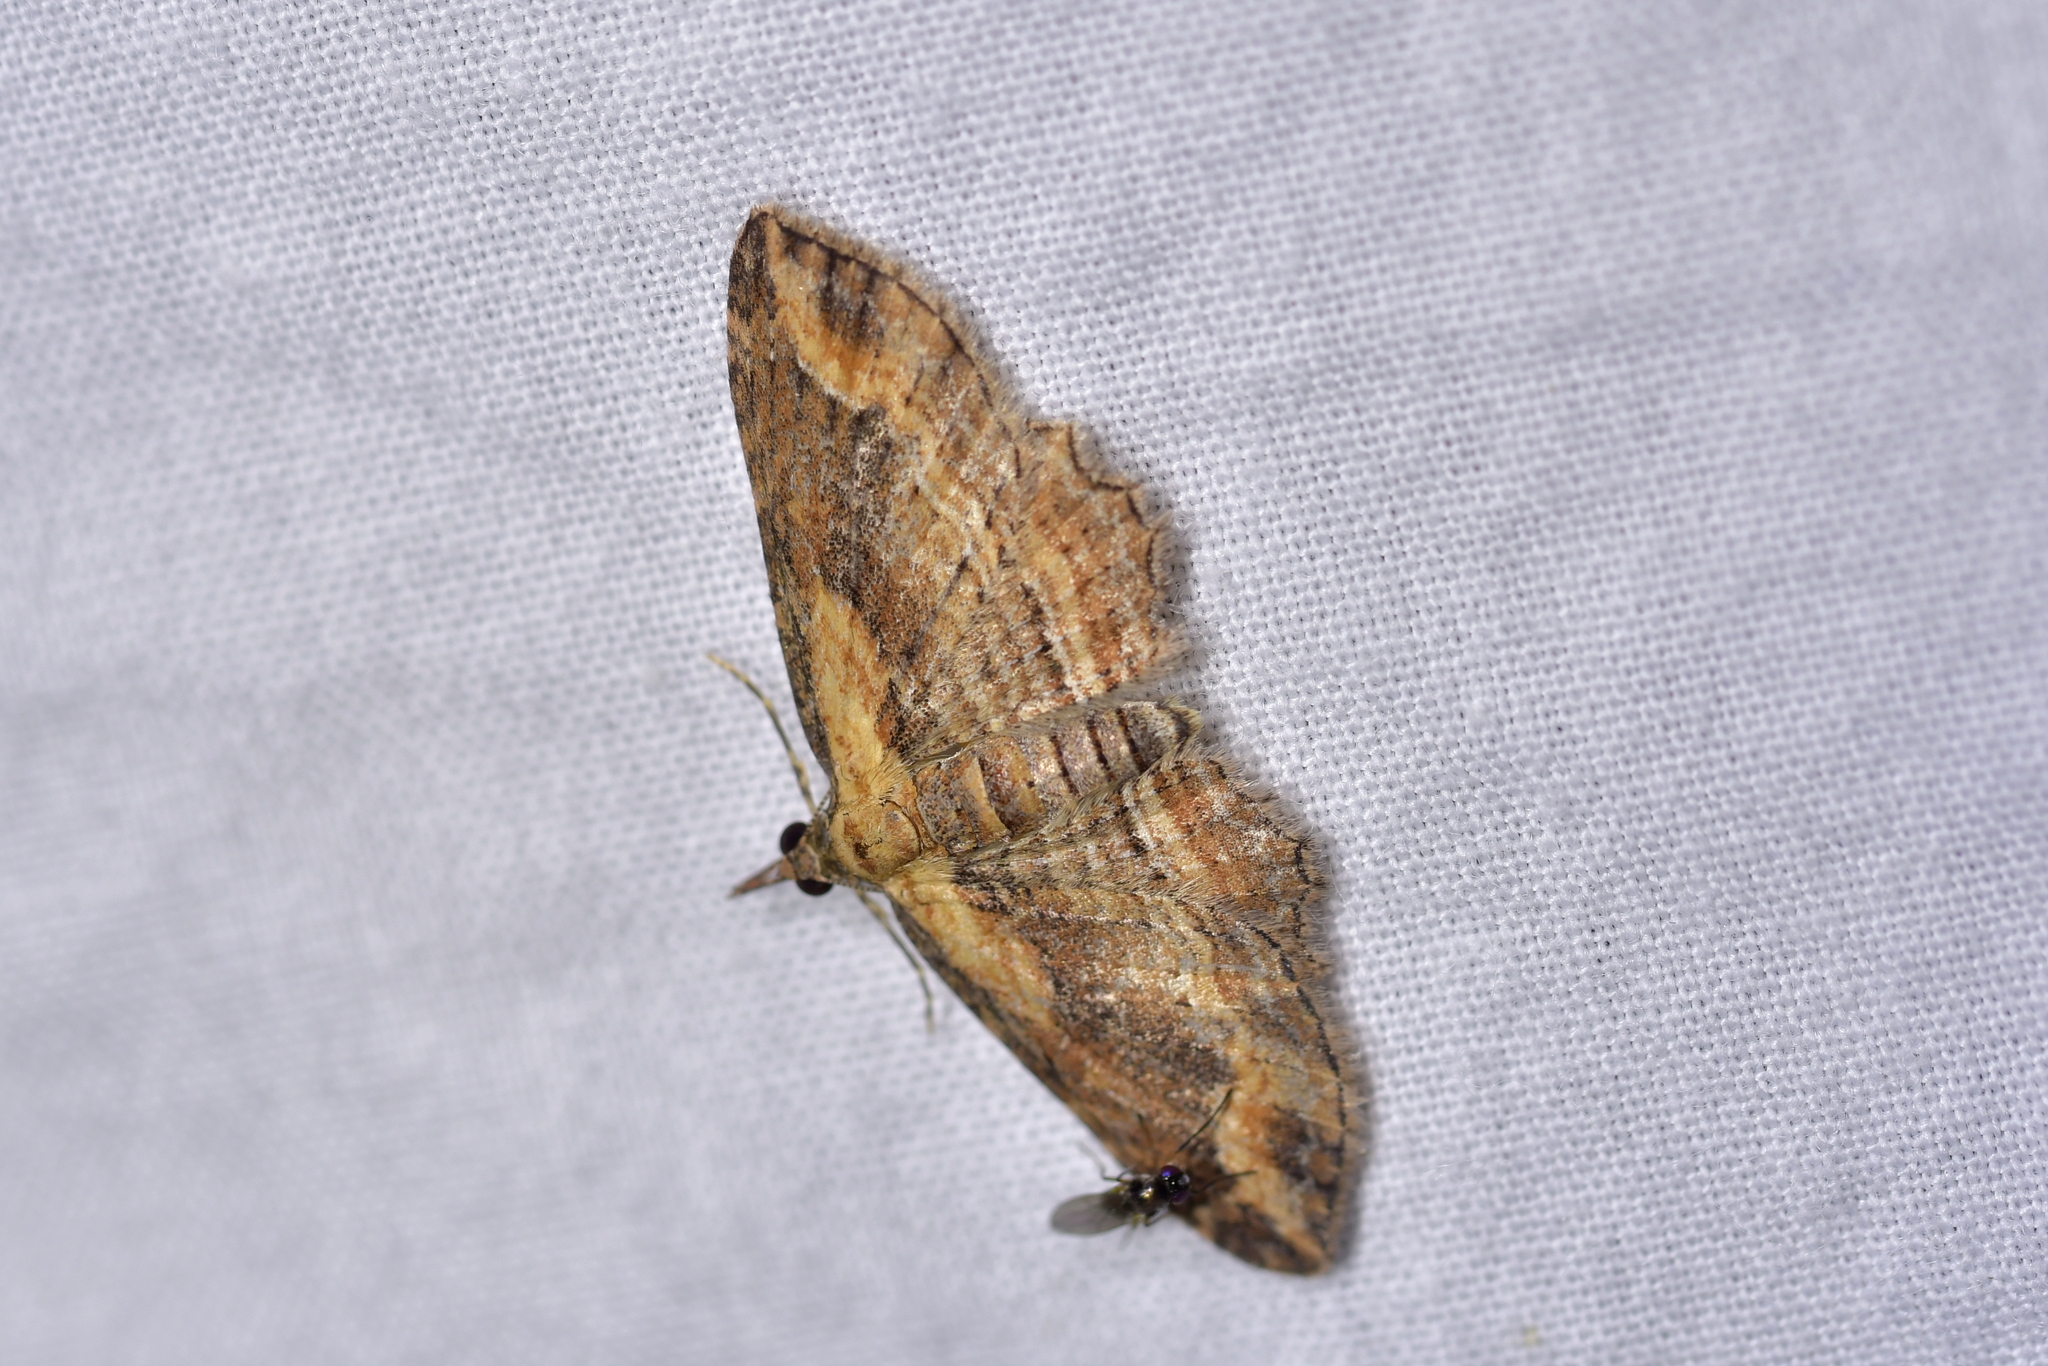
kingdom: Animalia
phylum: Arthropoda
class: Insecta
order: Lepidoptera
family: Geometridae
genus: Chloroclystis
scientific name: Chloroclystis filata
